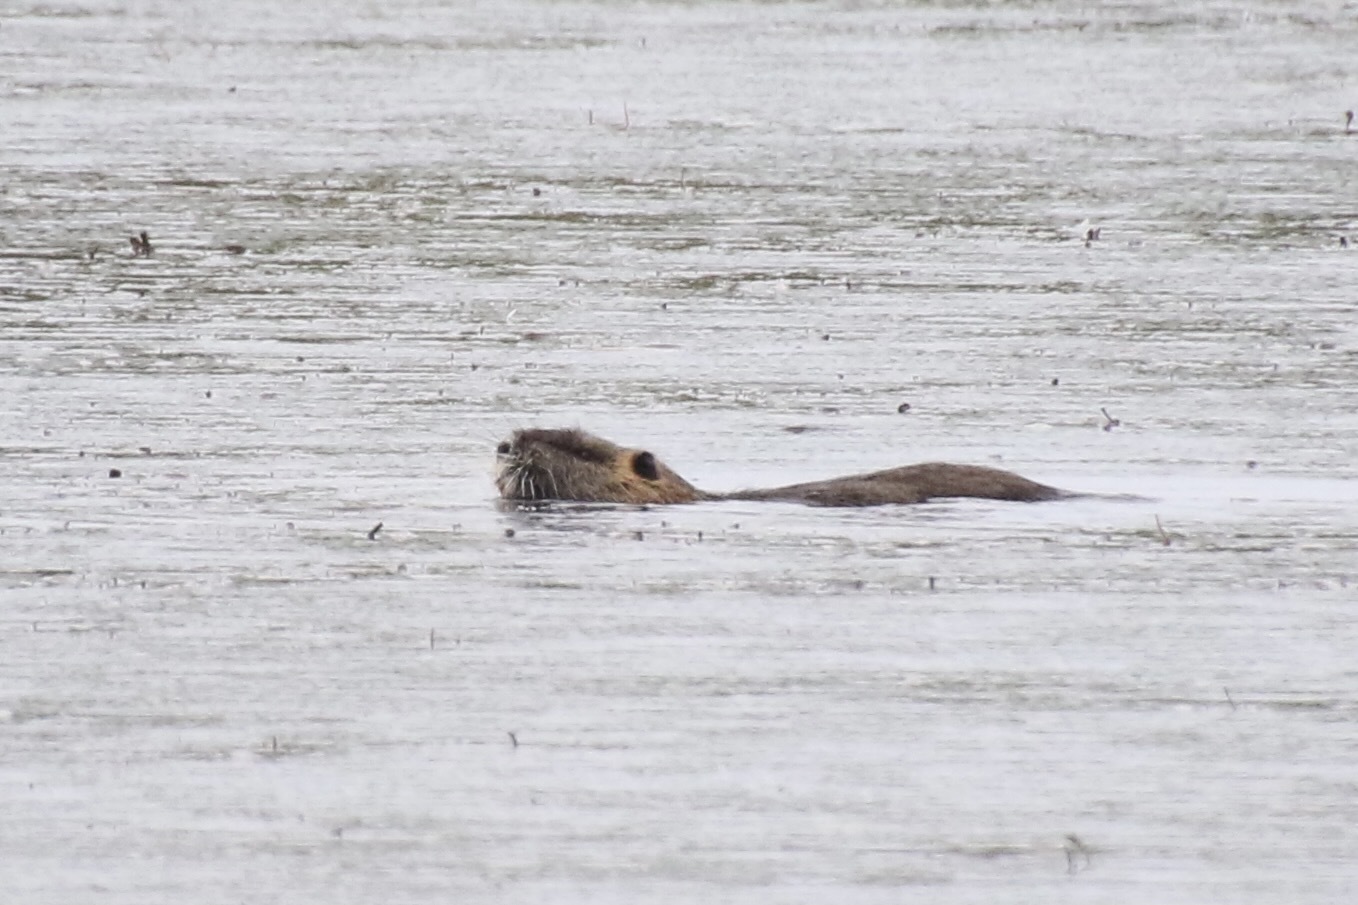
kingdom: Animalia
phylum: Chordata
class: Mammalia
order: Rodentia
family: Myocastoridae
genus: Myocastor
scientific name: Myocastor coypus
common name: Coypu
